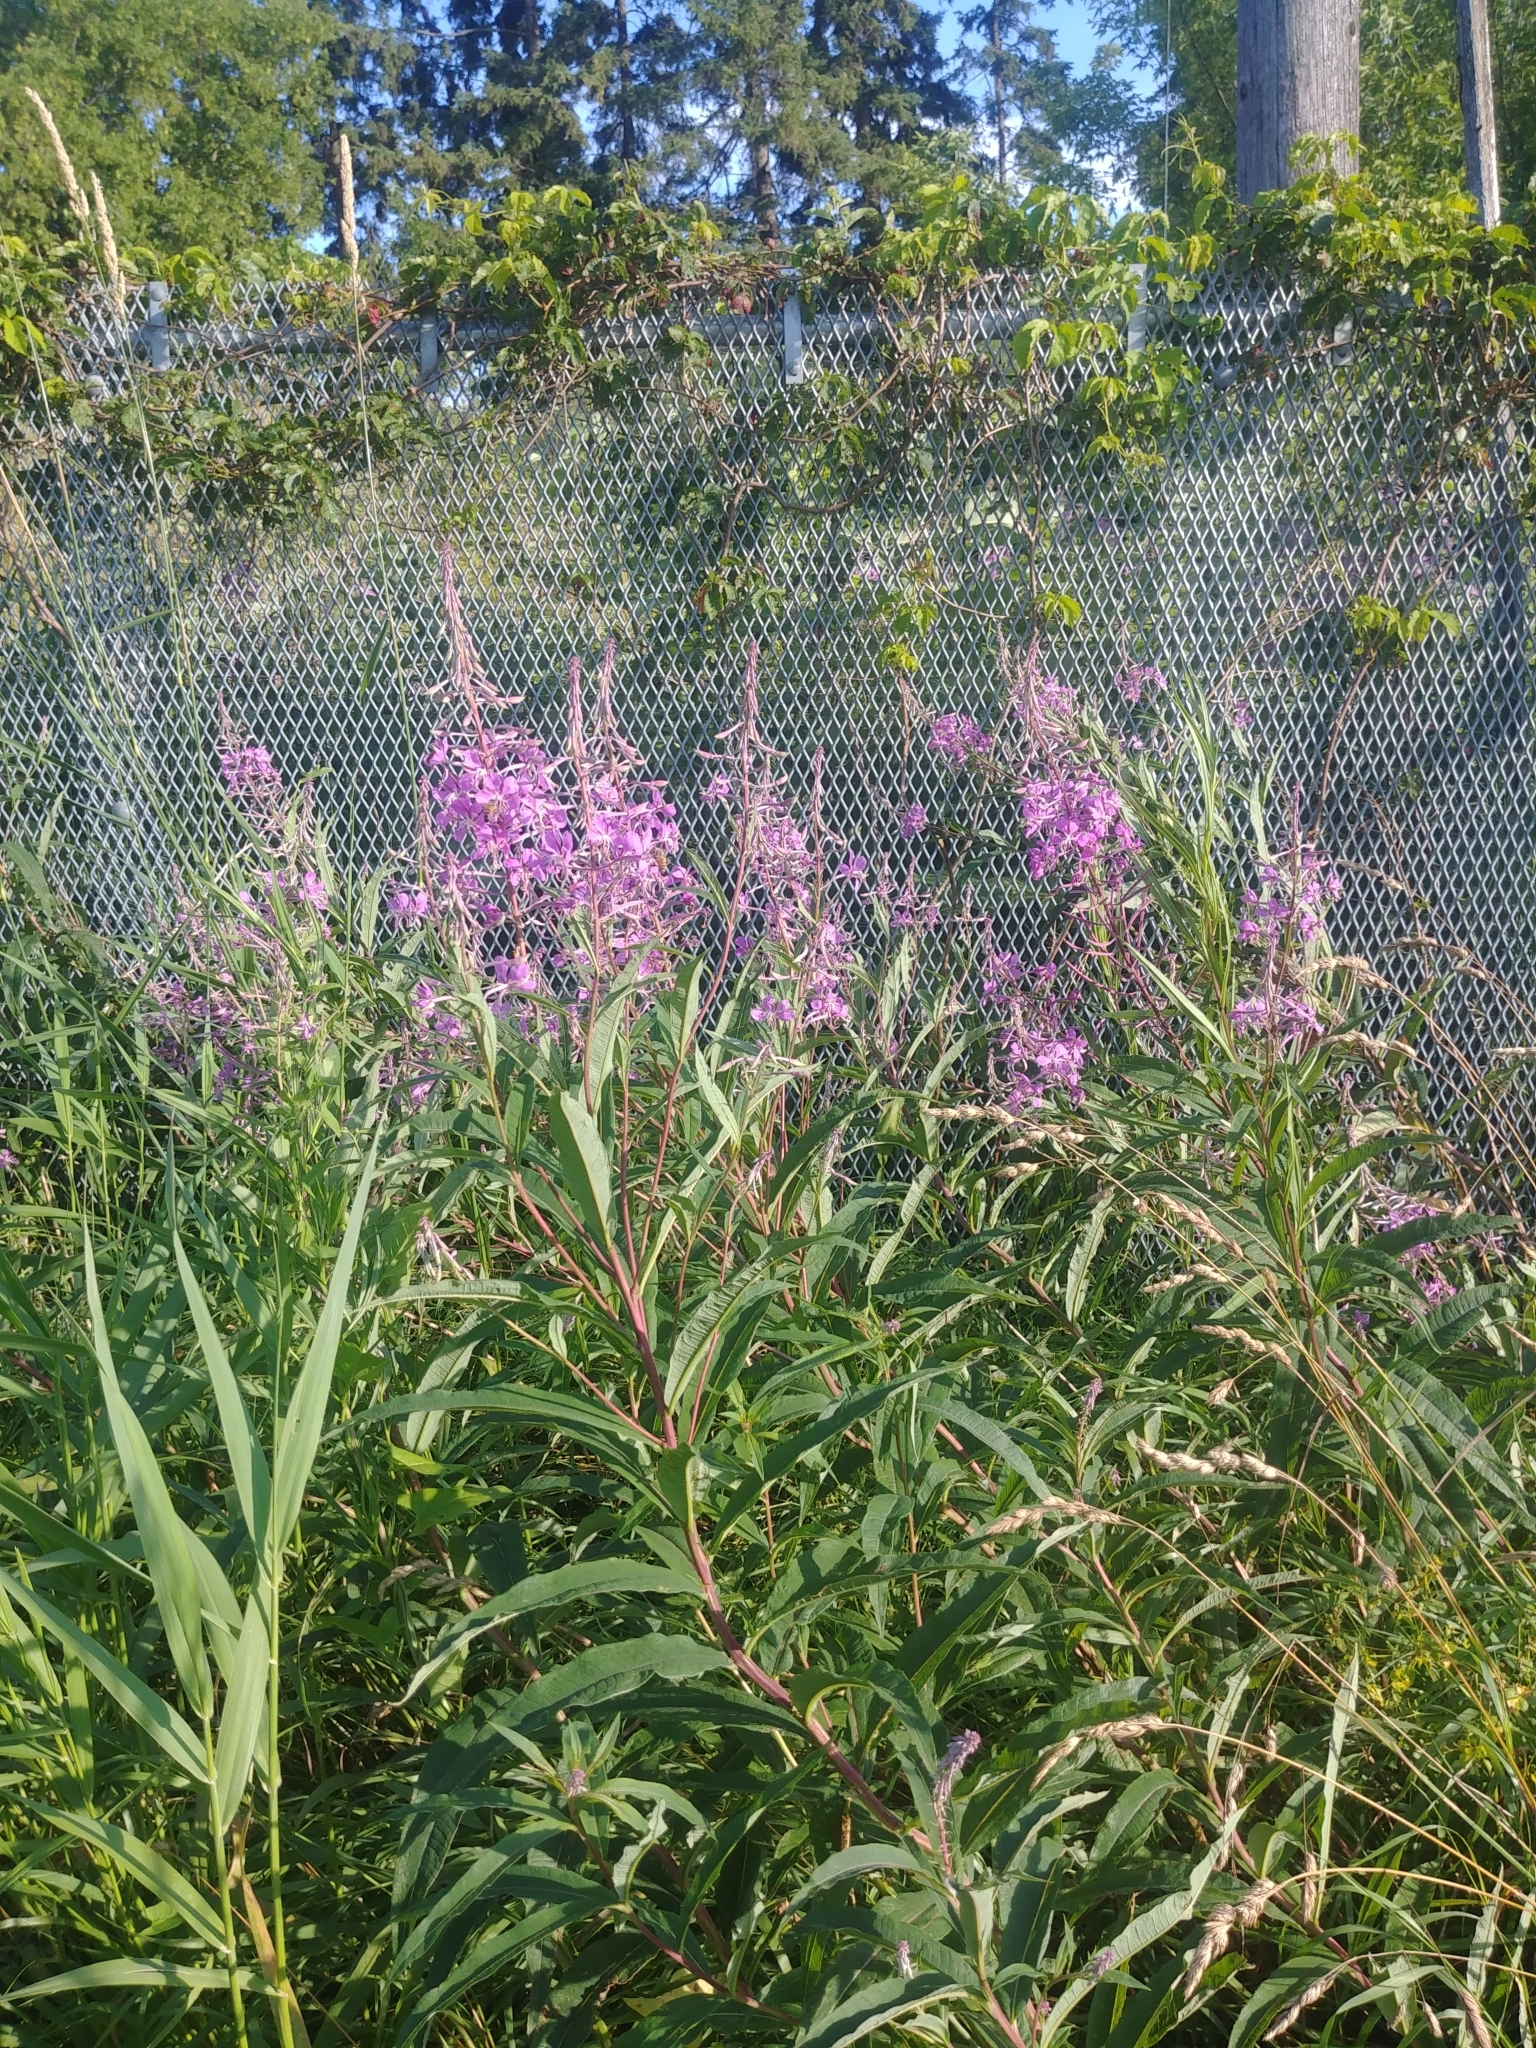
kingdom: Plantae
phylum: Tracheophyta
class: Magnoliopsida
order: Myrtales
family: Onagraceae
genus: Chamaenerion
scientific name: Chamaenerion angustifolium
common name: Fireweed
